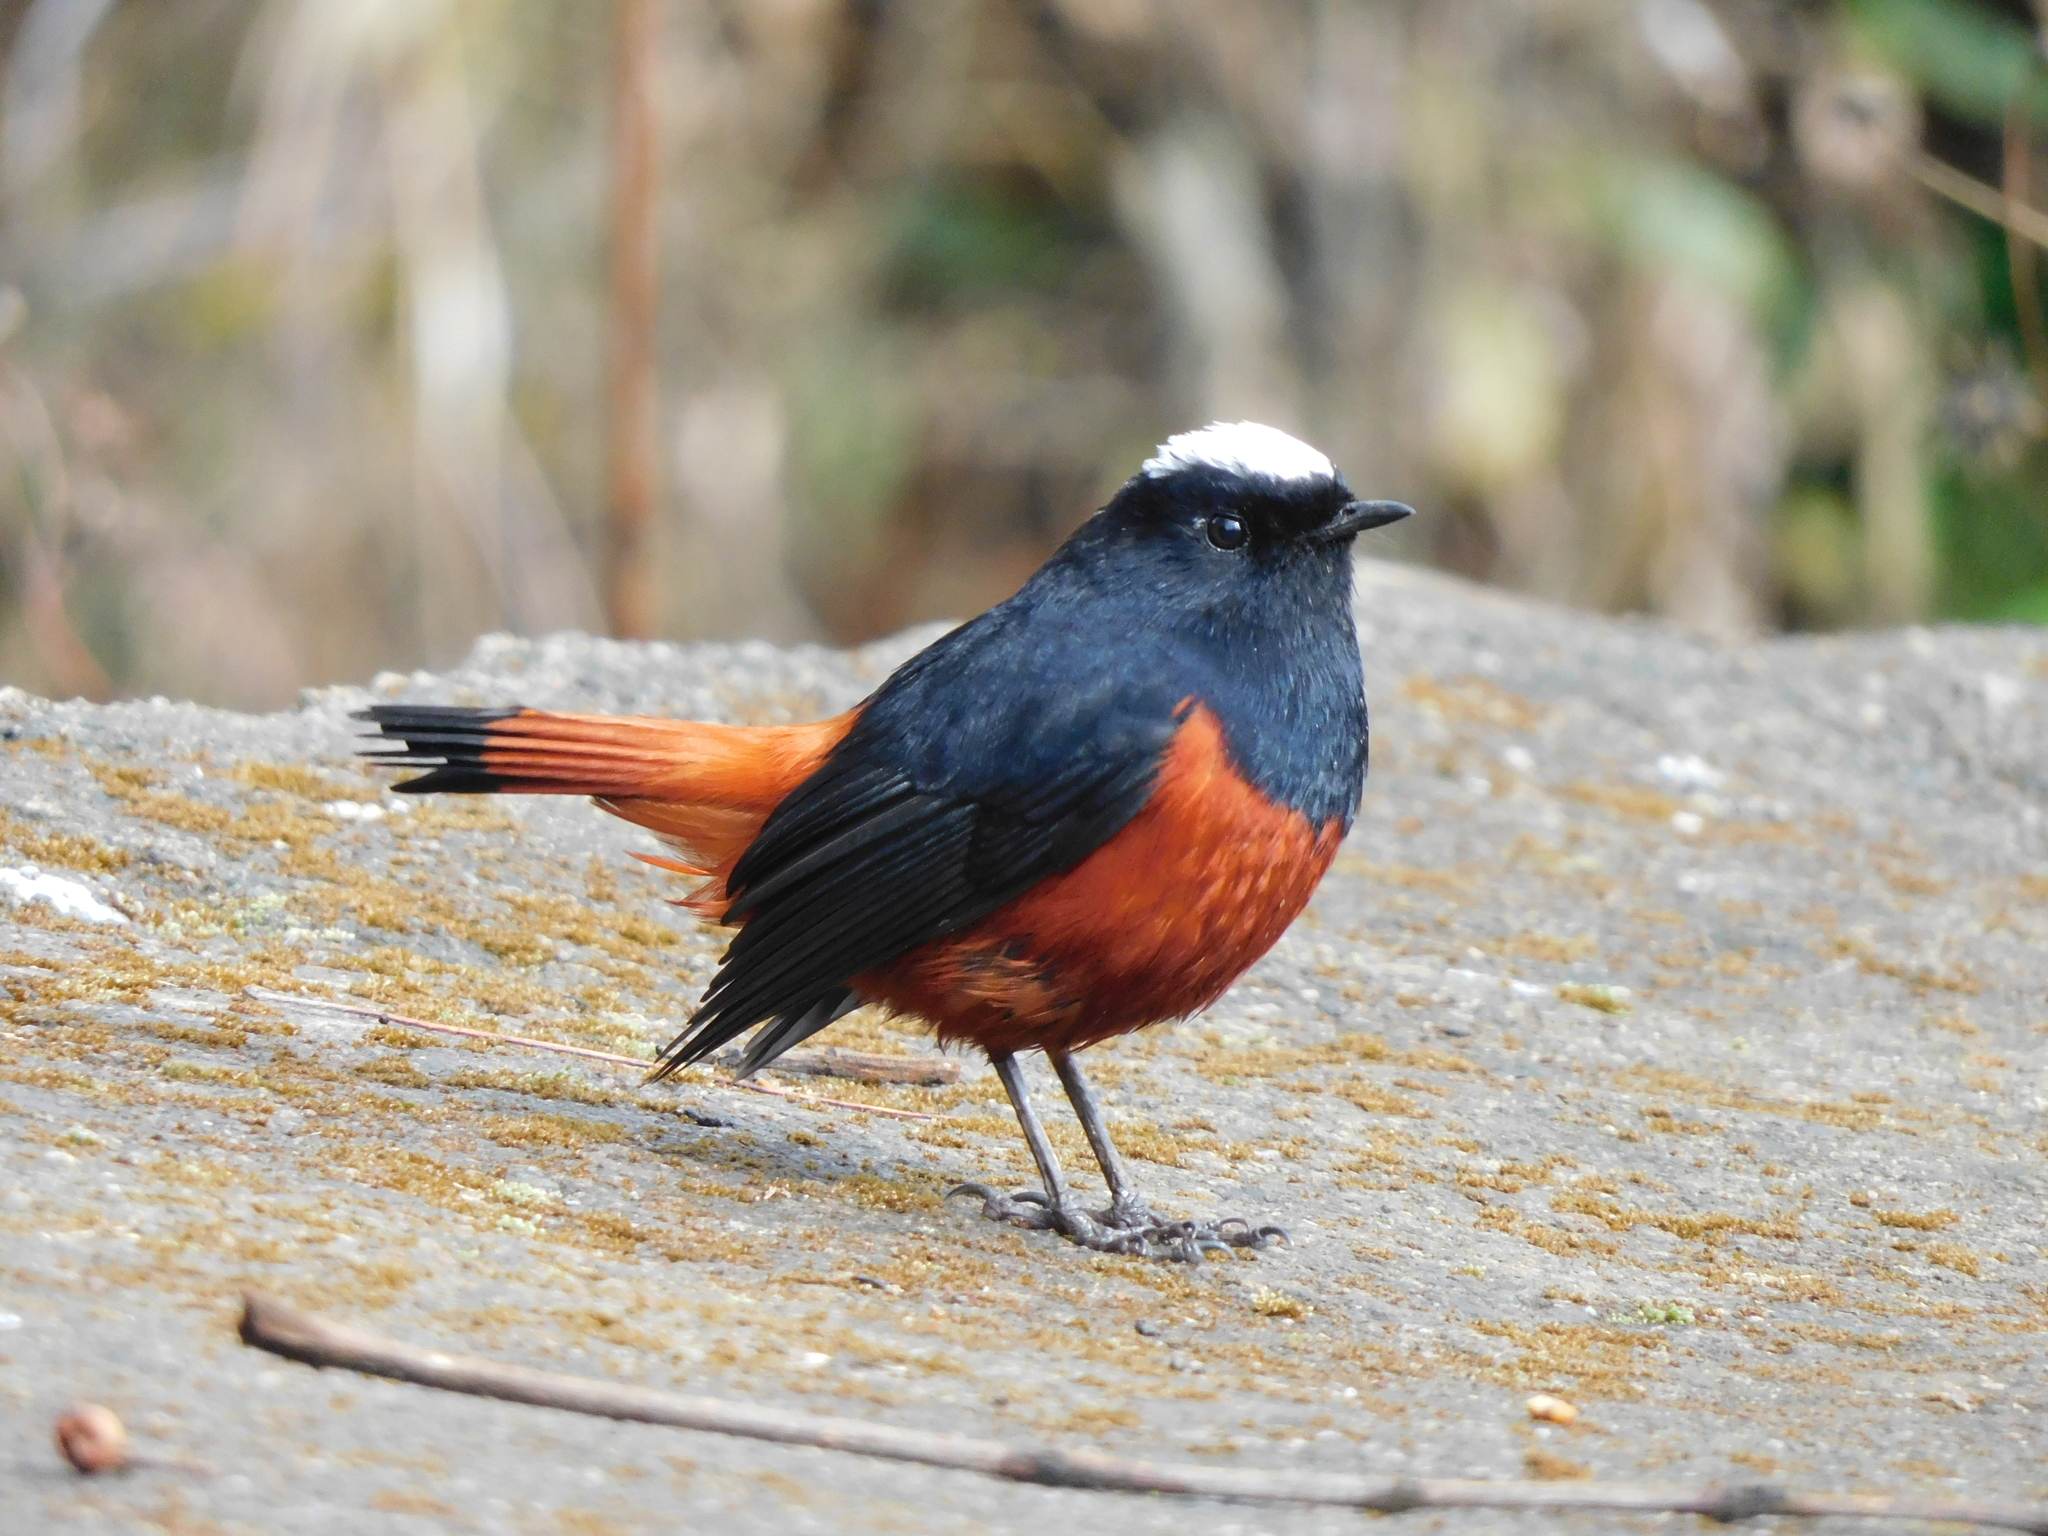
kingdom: Animalia
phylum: Chordata
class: Aves
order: Passeriformes
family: Muscicapidae
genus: Chaimarrornis
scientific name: Chaimarrornis leucocephalus
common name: White-capped redstart
